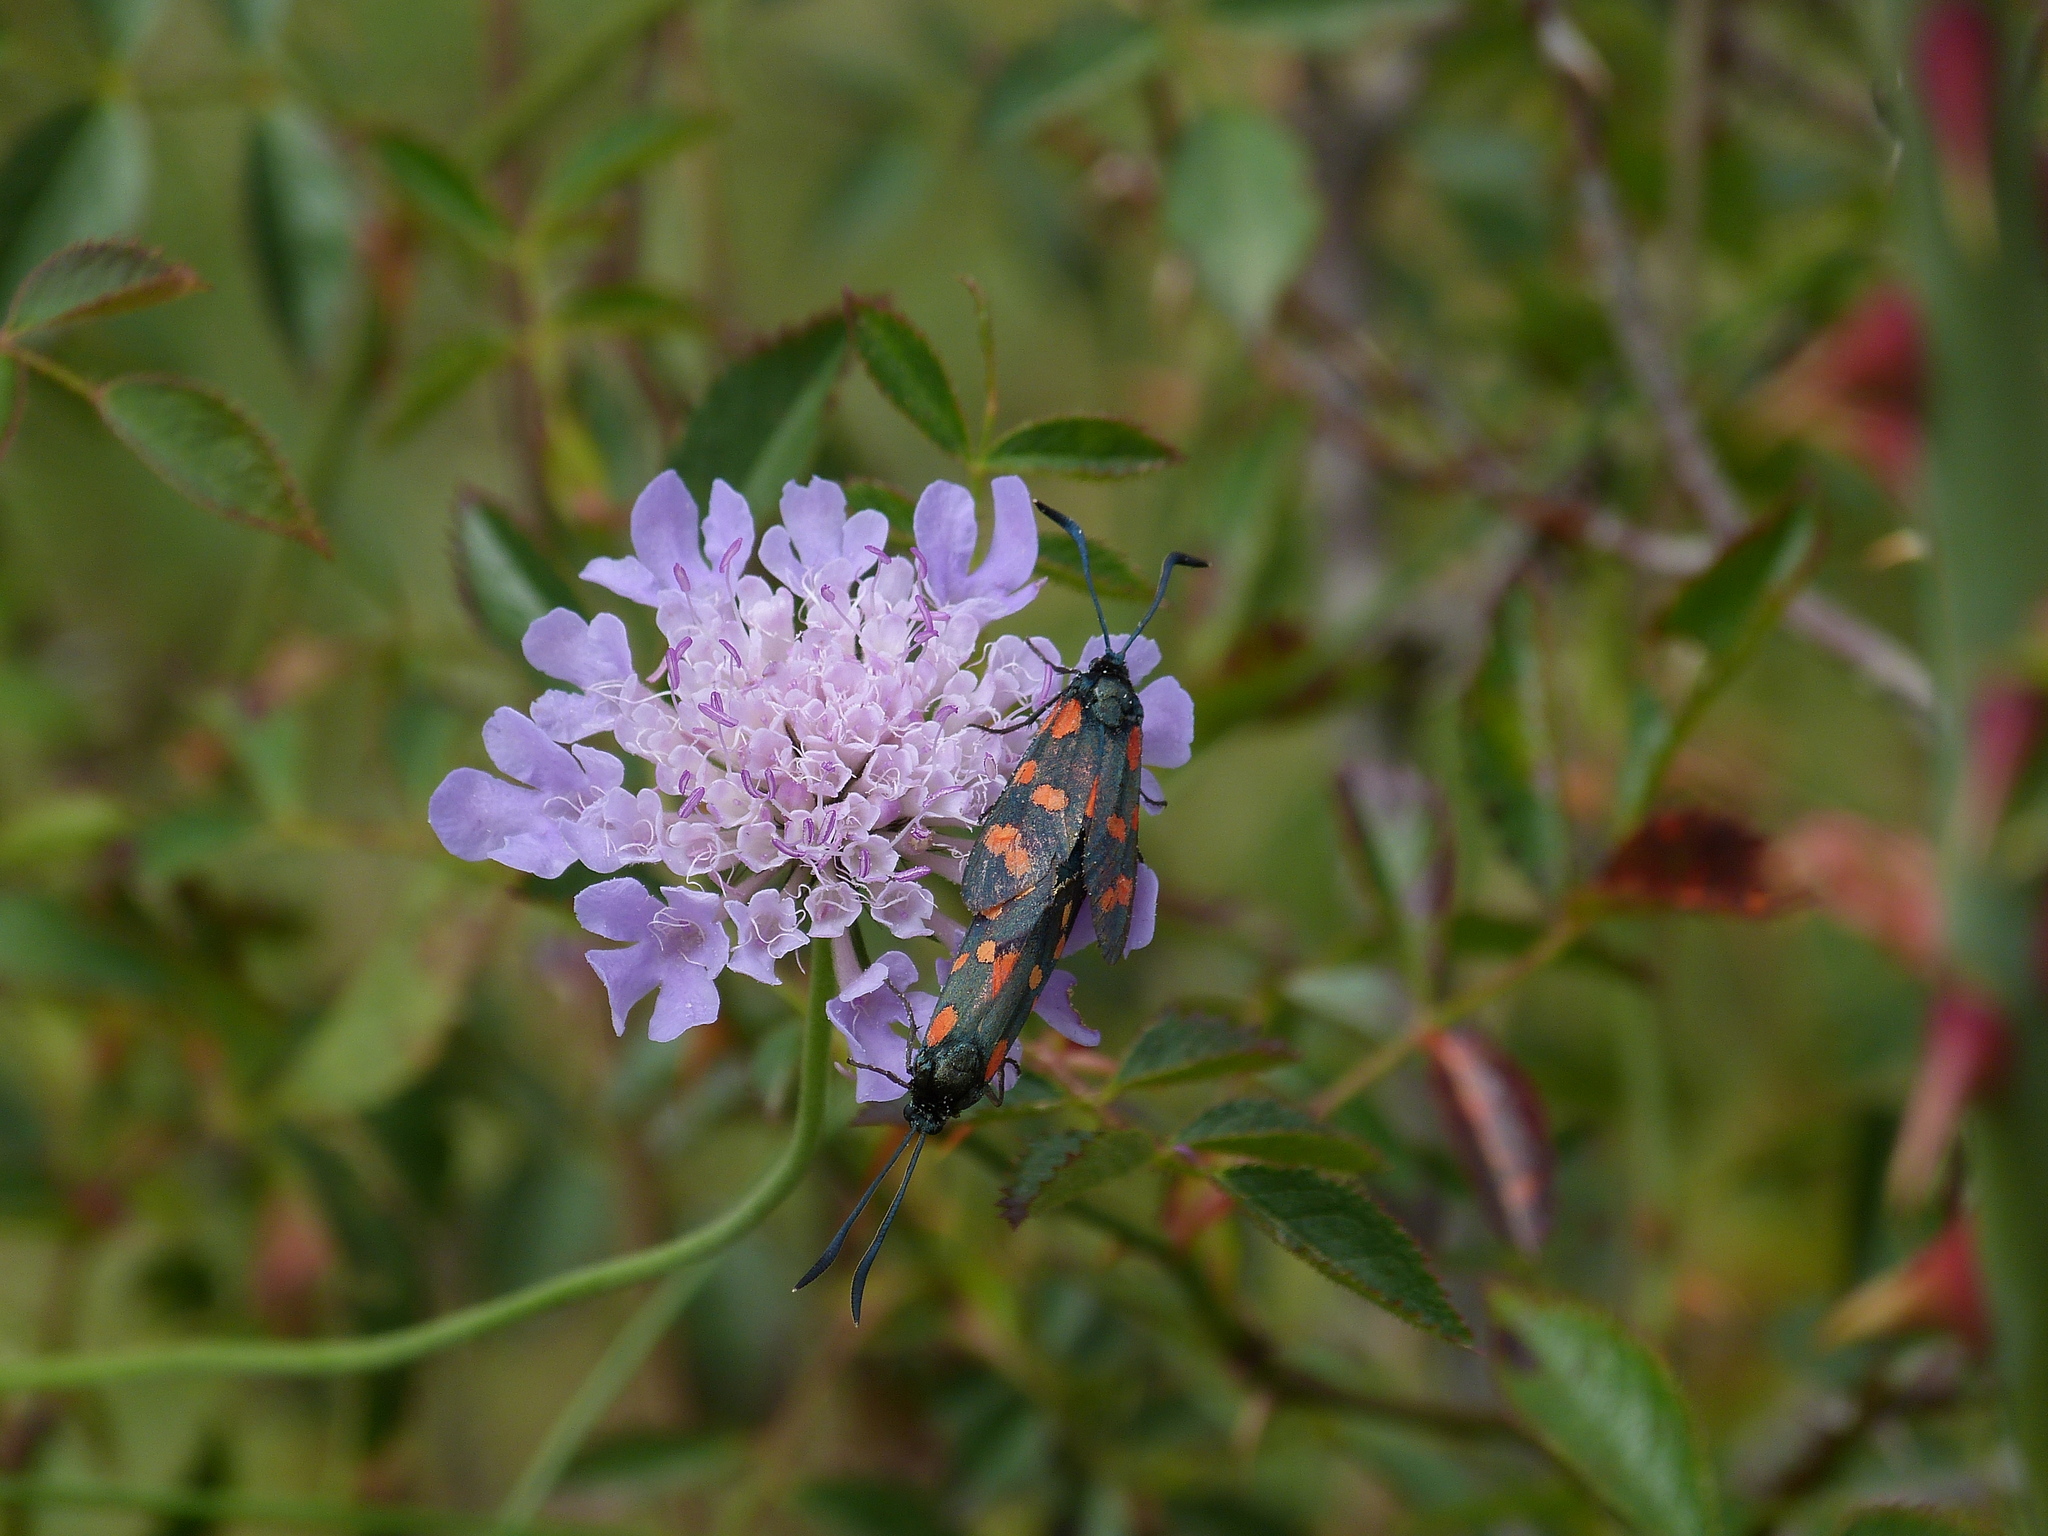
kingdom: Animalia
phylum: Arthropoda
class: Insecta
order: Lepidoptera
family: Zygaenidae
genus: Zygaena
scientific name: Zygaena transalpina
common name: Southern six spot burnet
